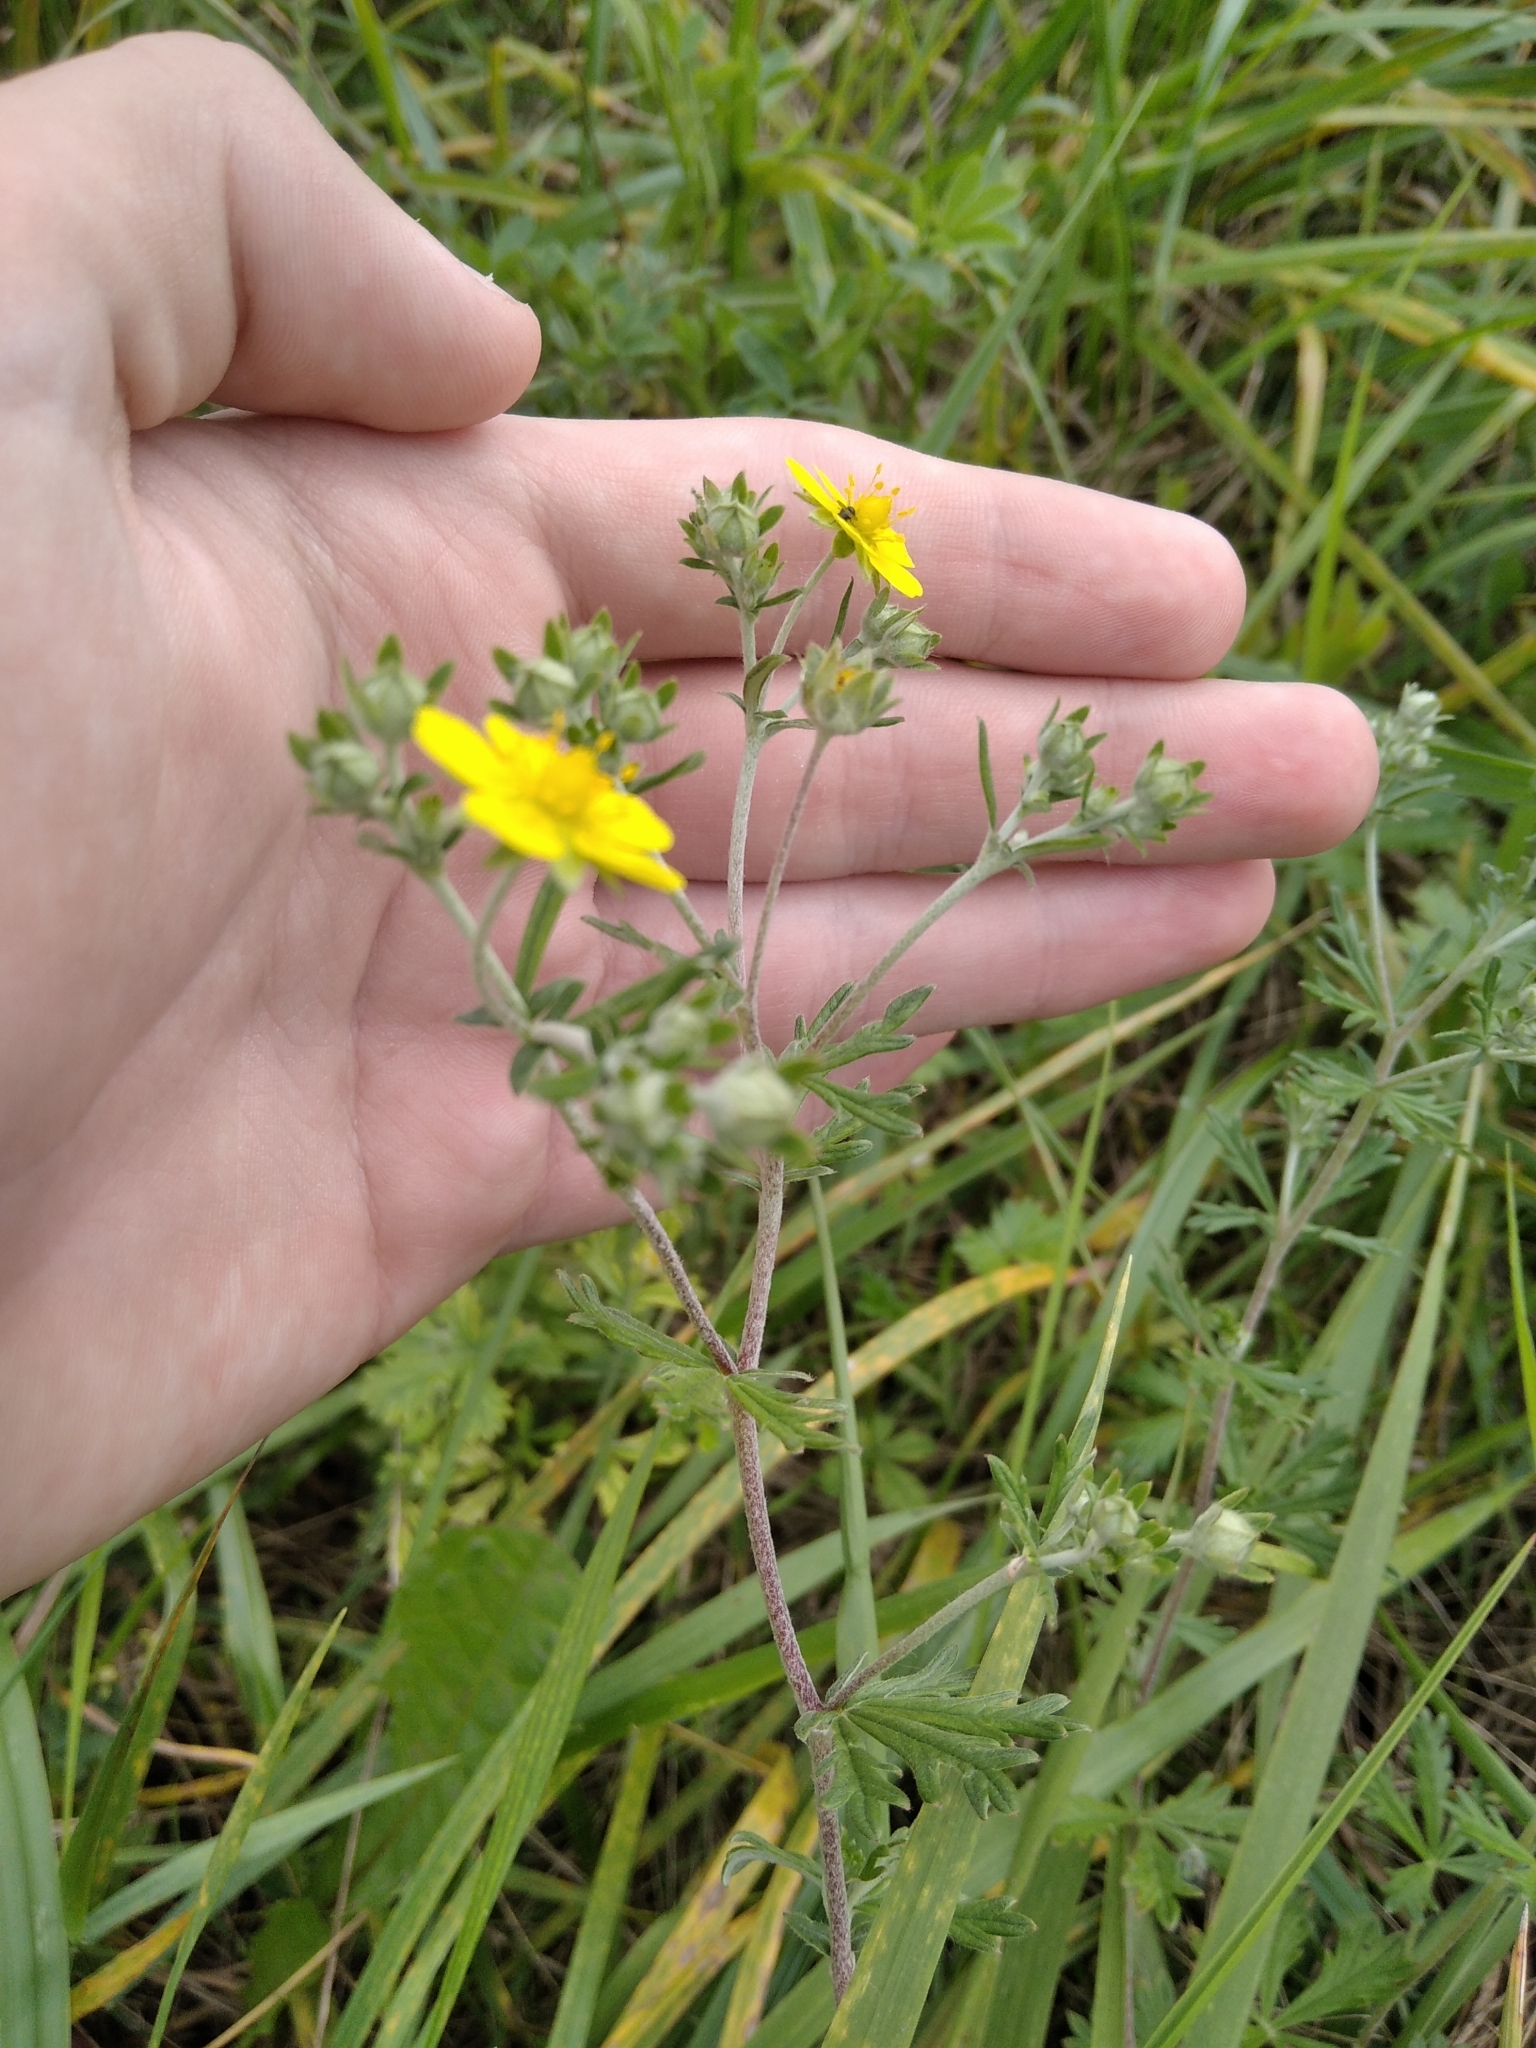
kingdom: Plantae
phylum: Tracheophyta
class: Magnoliopsida
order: Rosales
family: Rosaceae
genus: Potentilla
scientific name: Potentilla argentea
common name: Hoary cinquefoil
